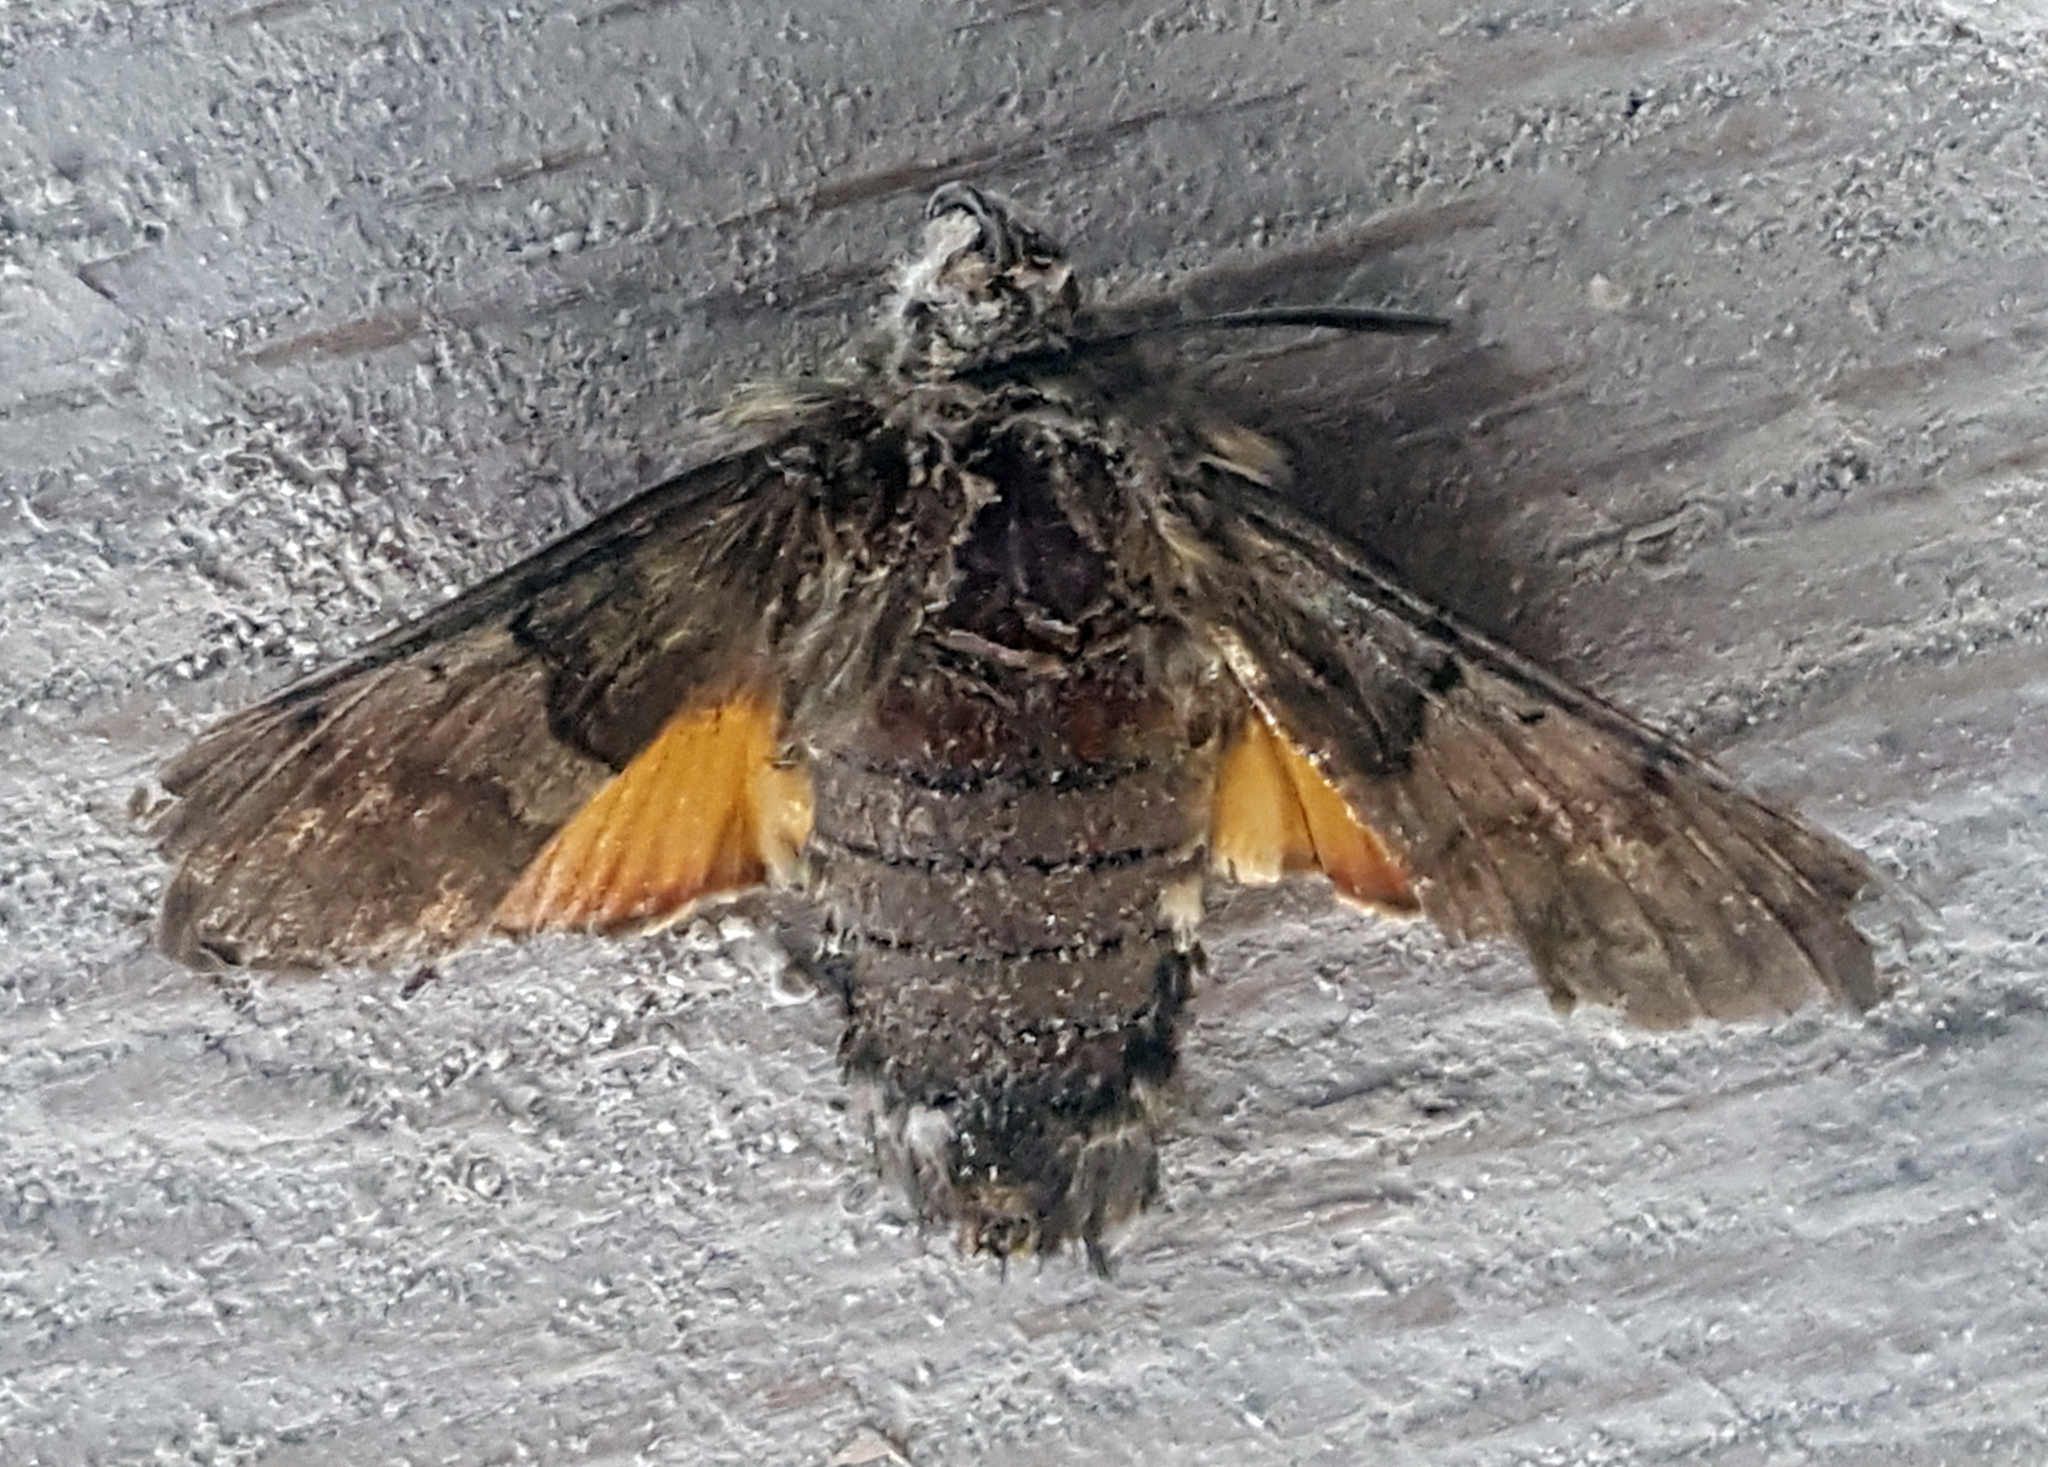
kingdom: Animalia
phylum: Arthropoda
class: Insecta
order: Lepidoptera
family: Sphingidae
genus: Macroglossum
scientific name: Macroglossum stellatarum
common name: Humming-bird hawk-moth
